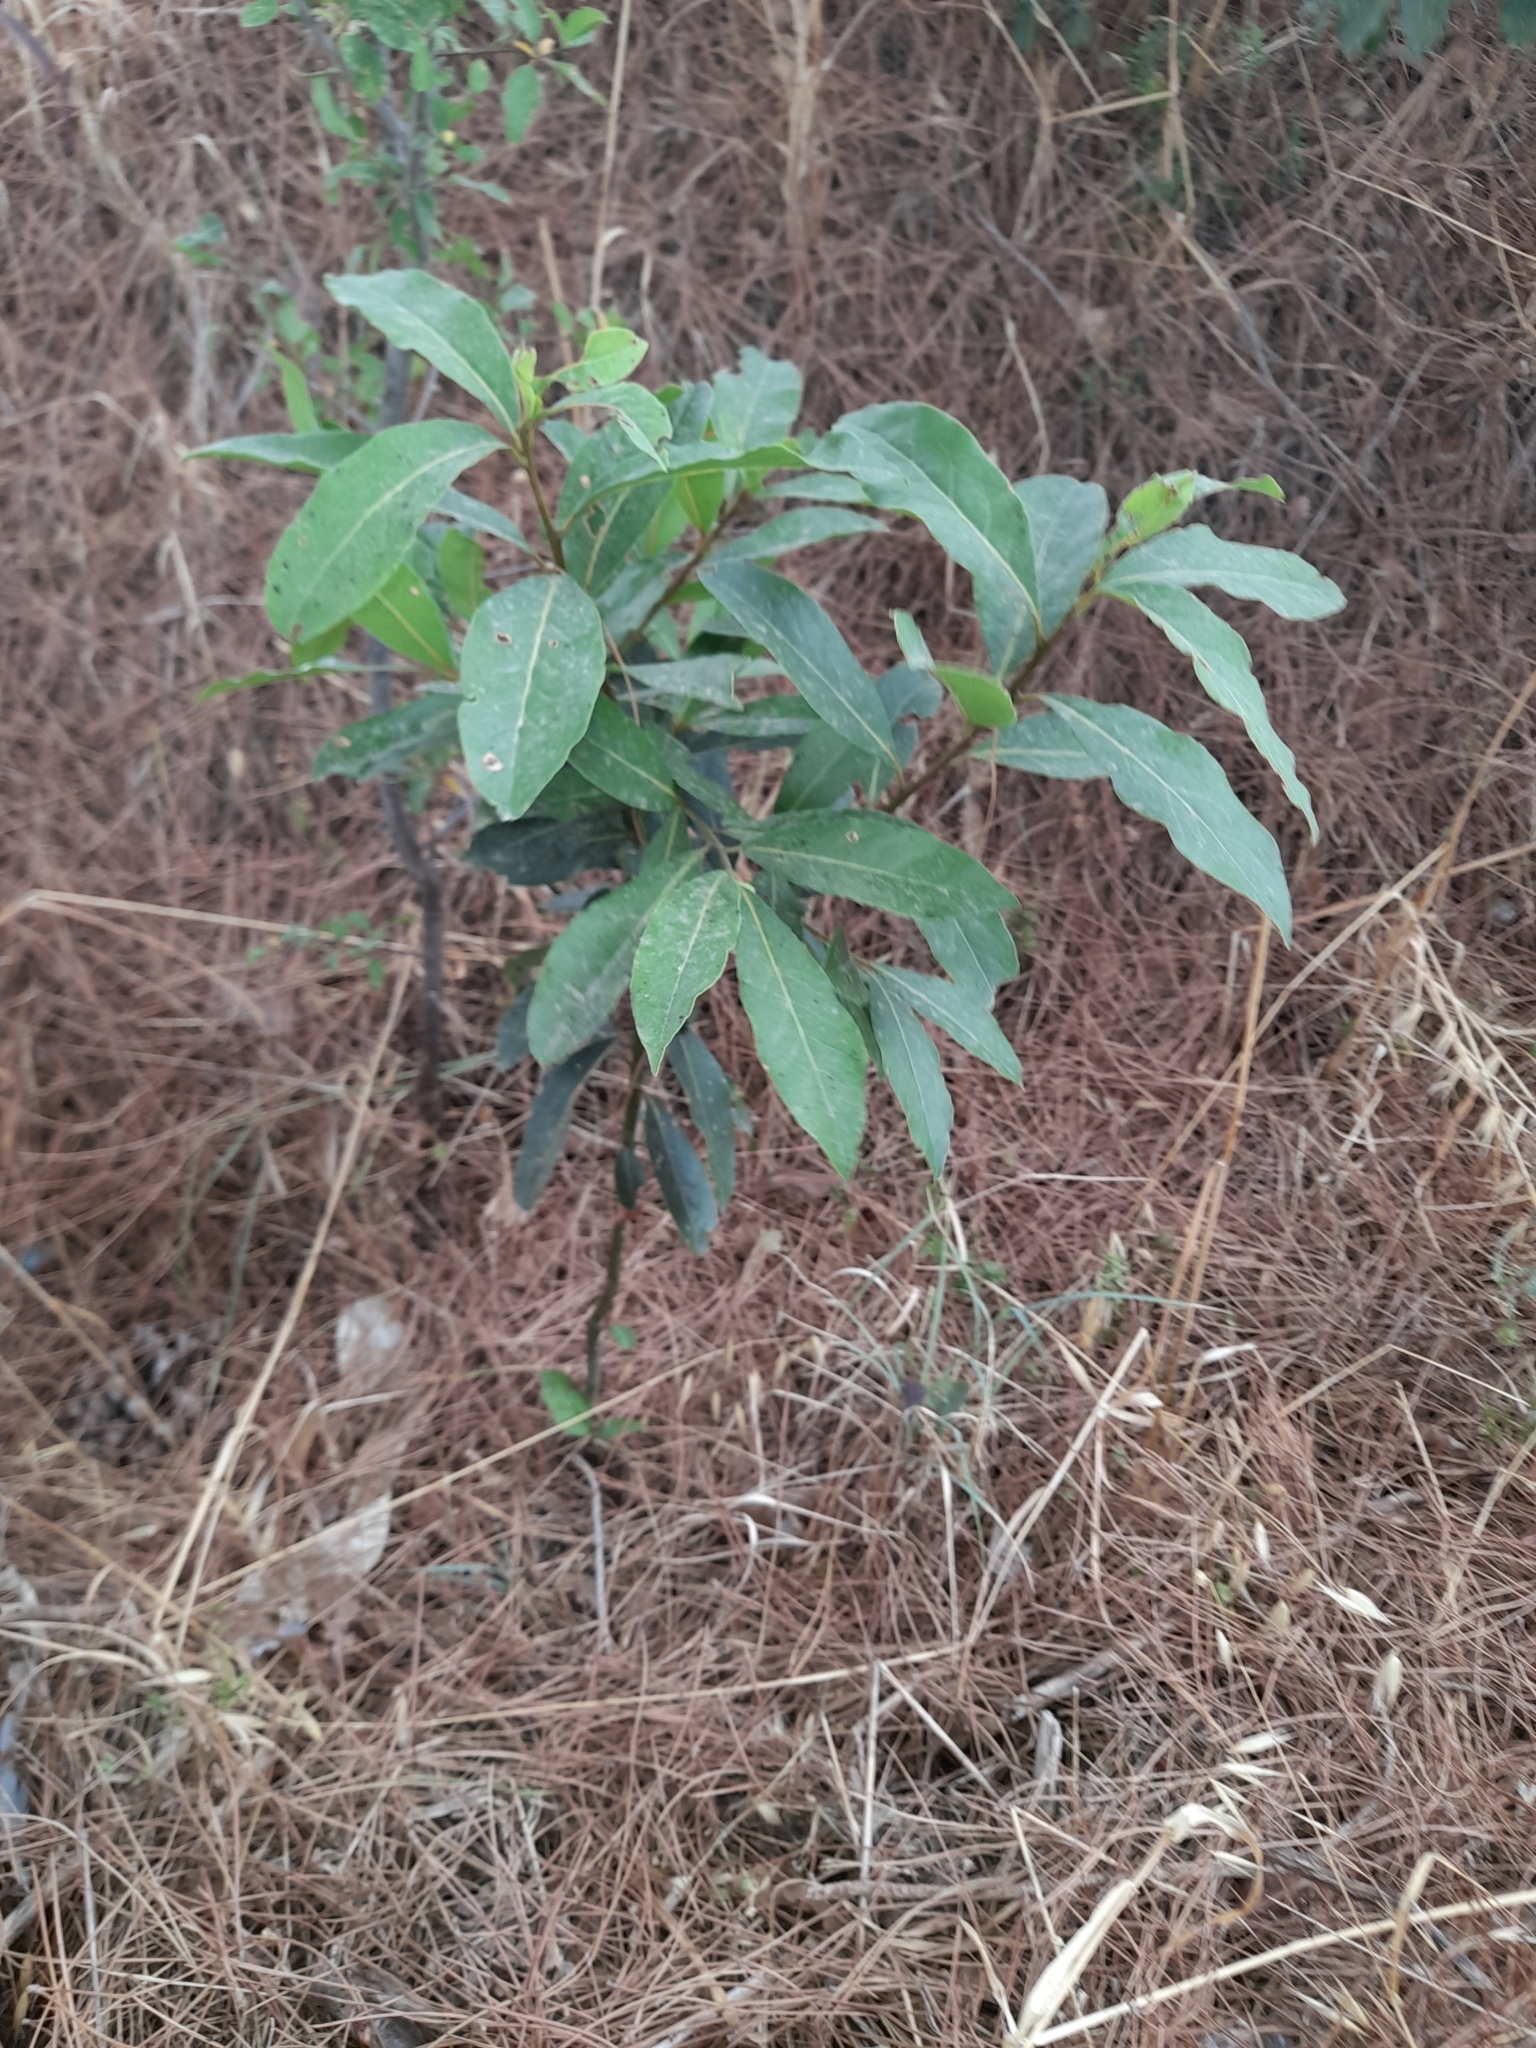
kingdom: Plantae
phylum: Tracheophyta
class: Magnoliopsida
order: Laurales
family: Lauraceae
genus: Laurus
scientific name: Laurus nobilis
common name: Bay
